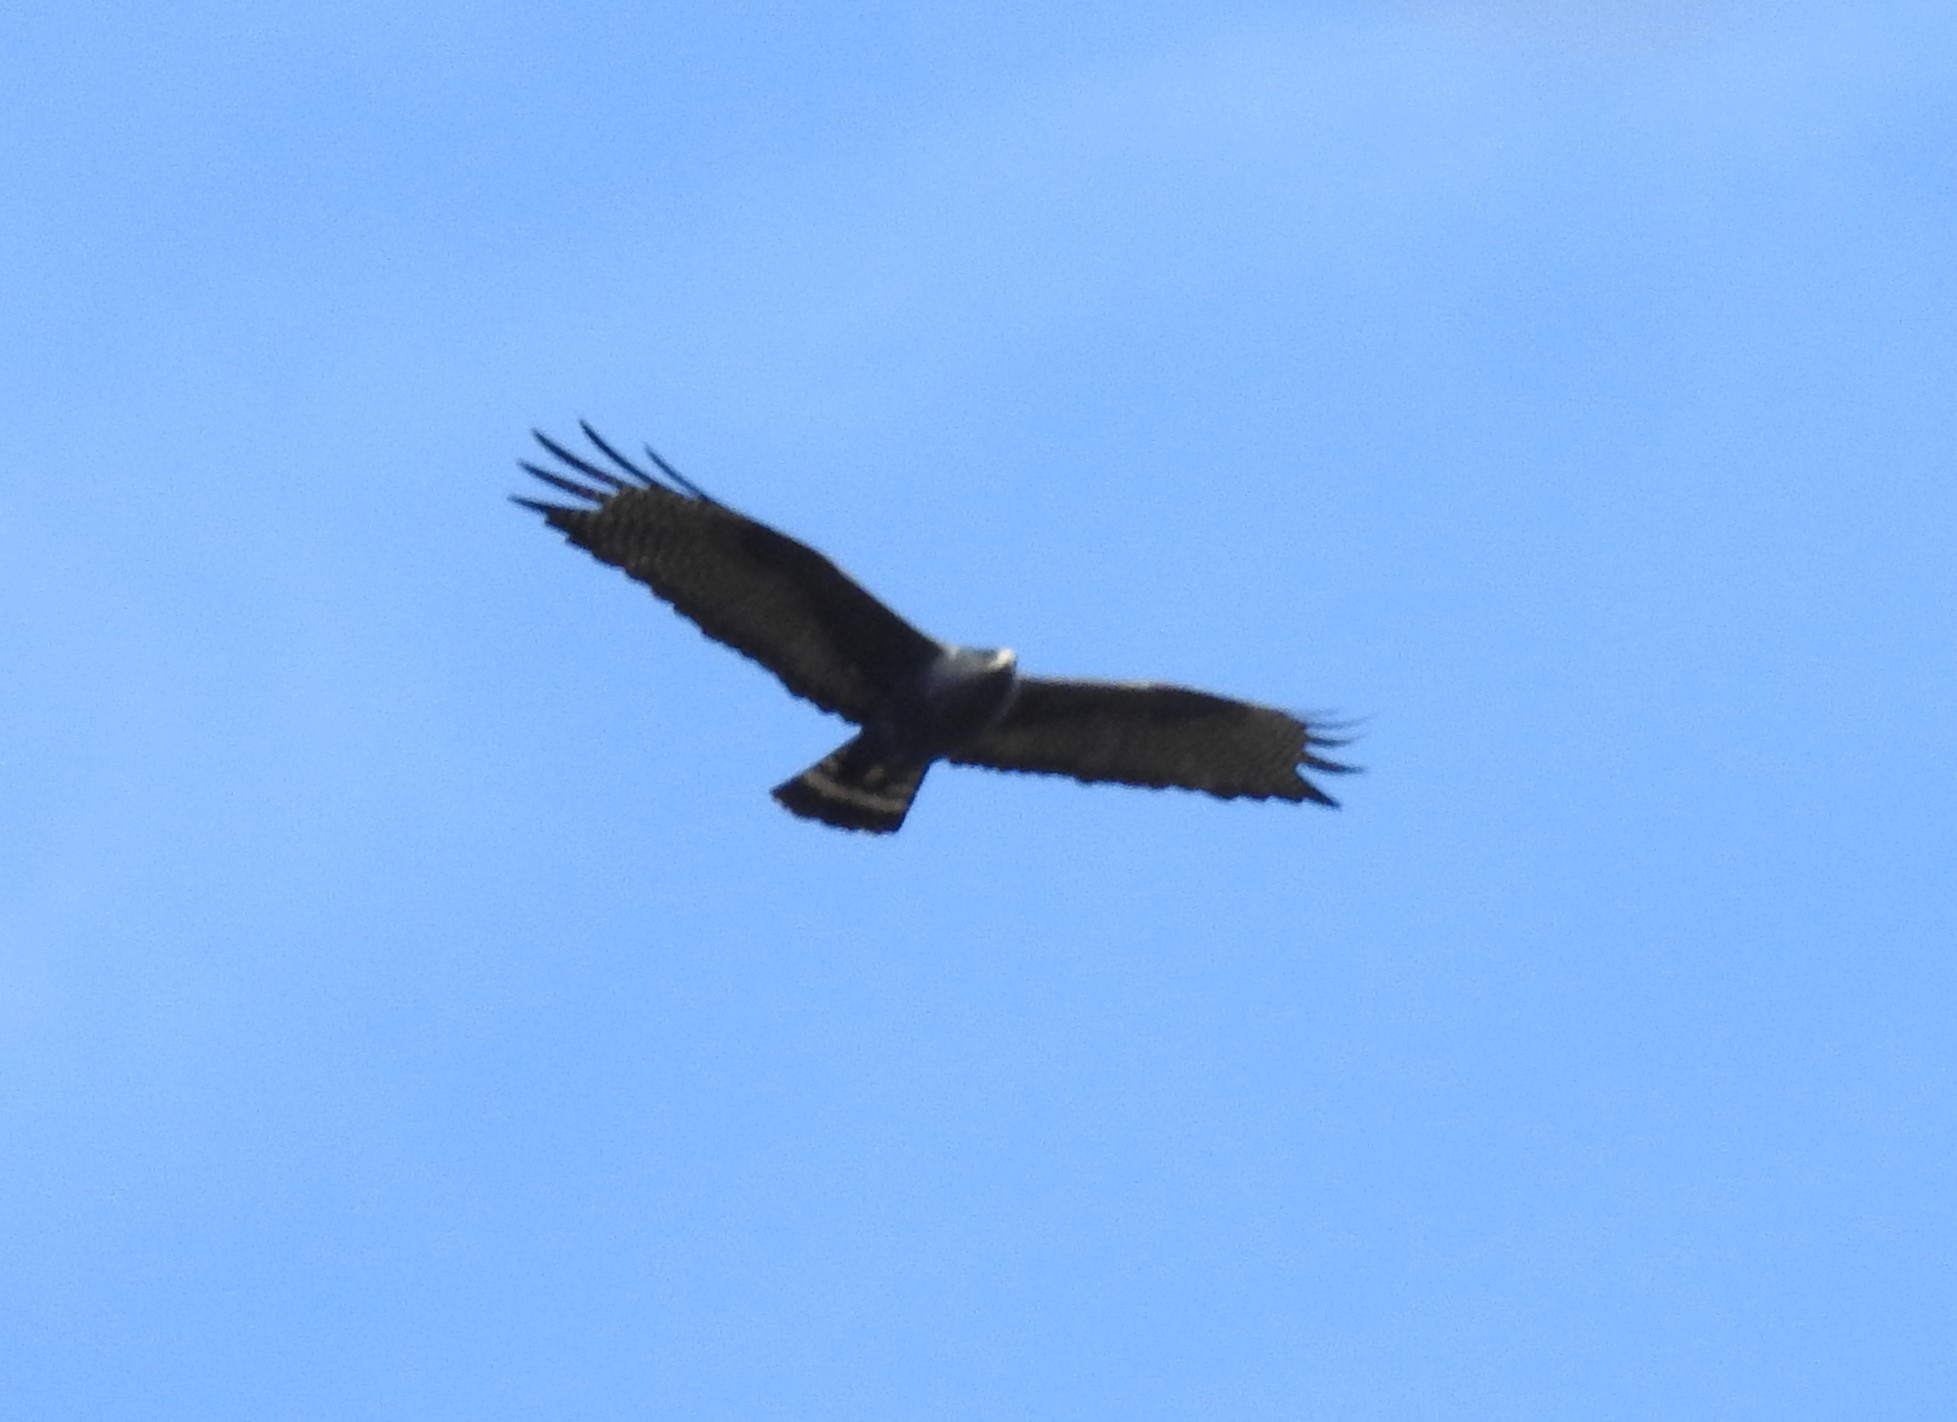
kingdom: Animalia
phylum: Chordata
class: Aves
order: Accipitriformes
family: Accipitridae
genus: Buteo
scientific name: Buteo albonotatus
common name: Zone-tailed hawk
